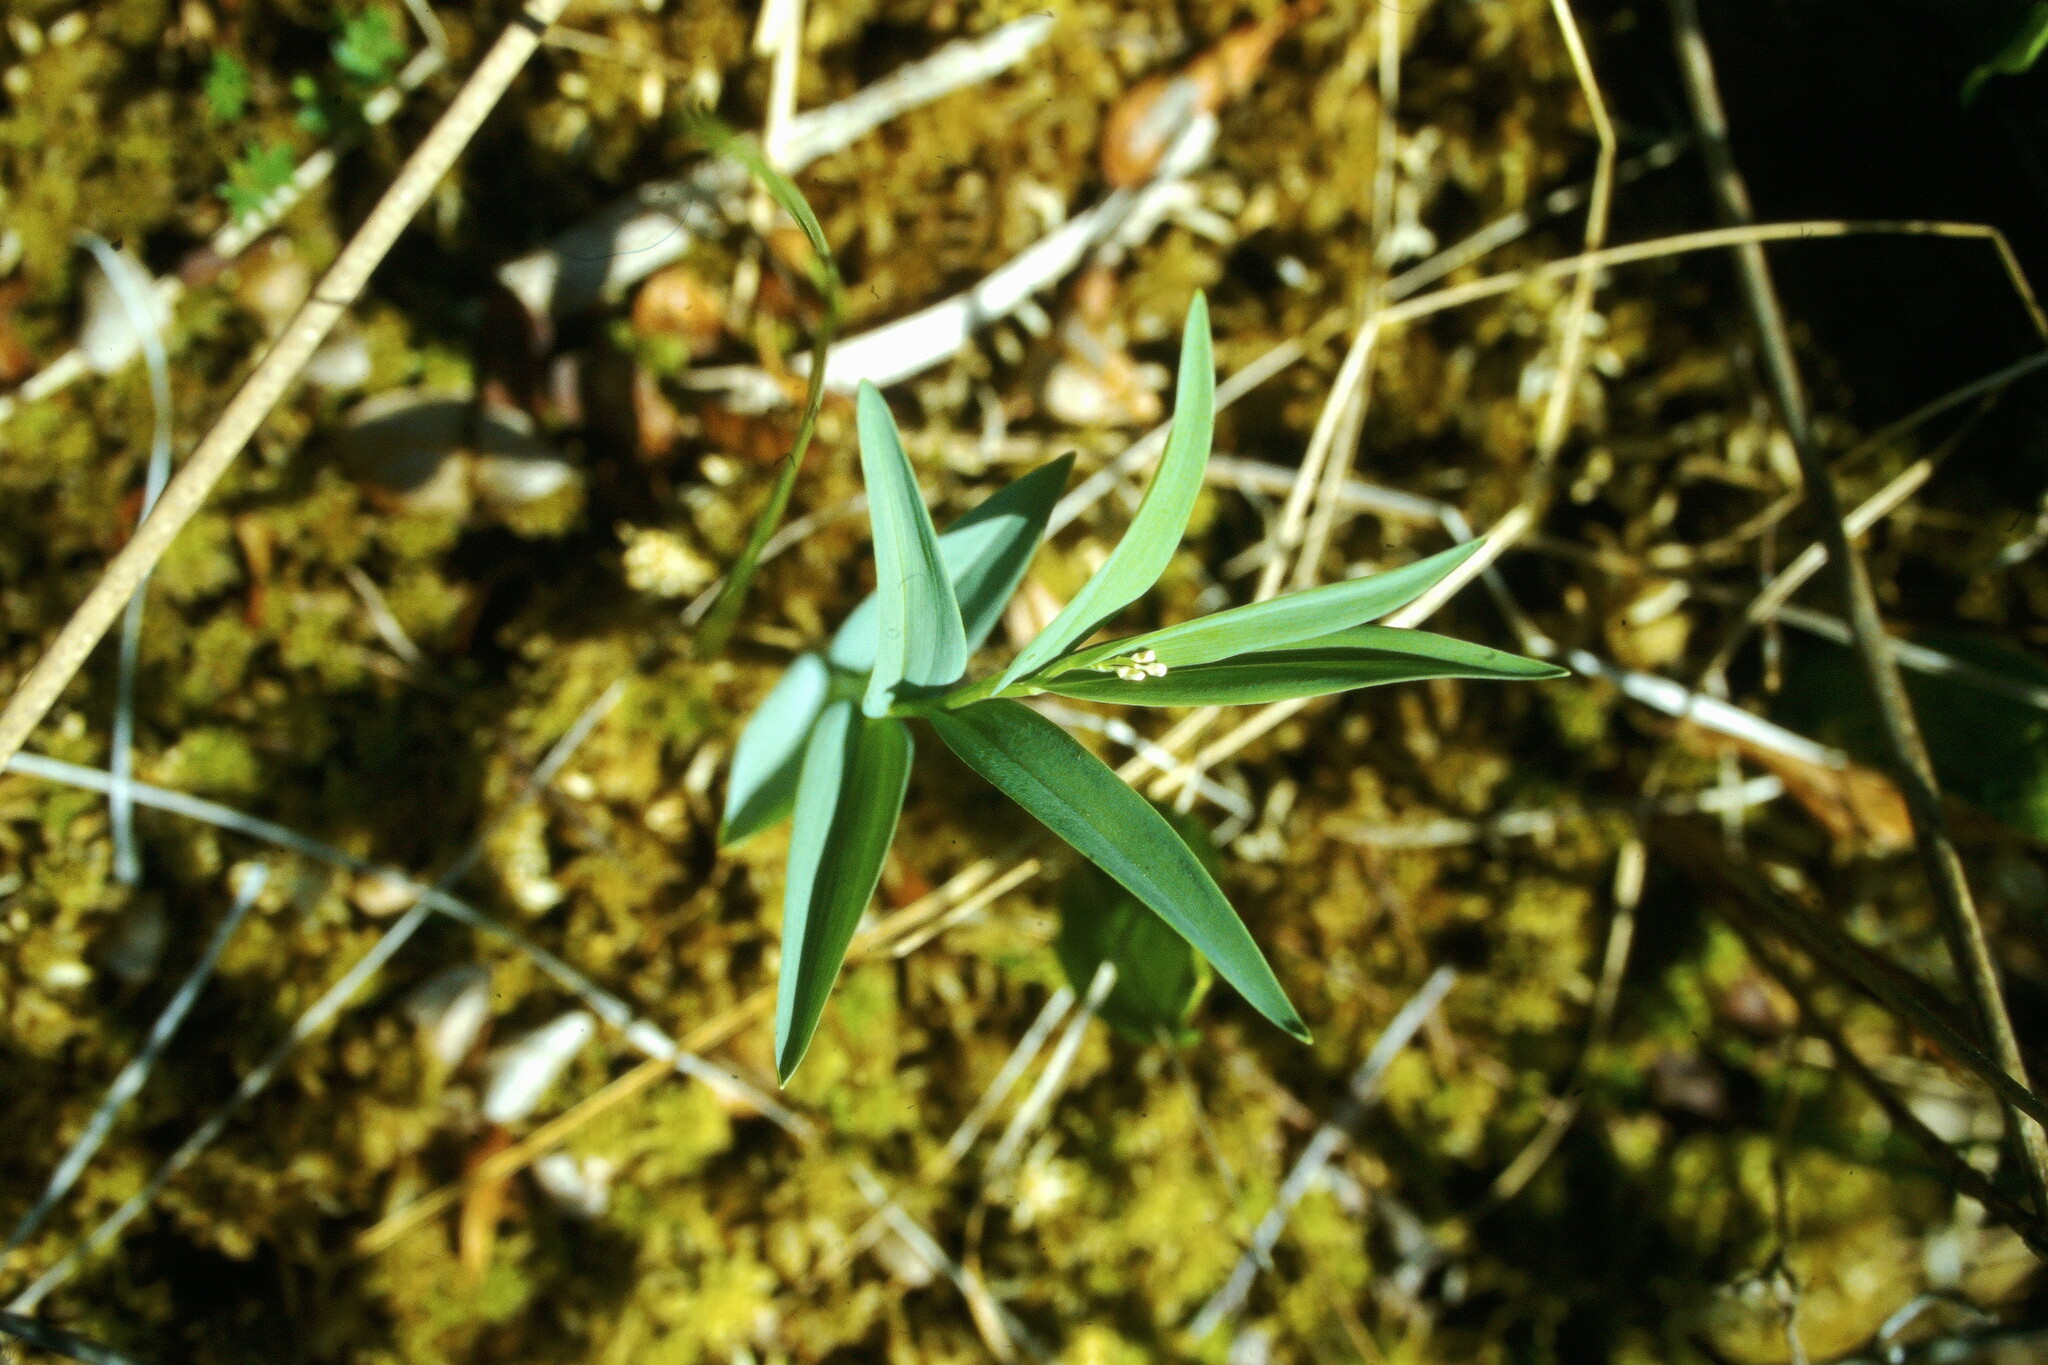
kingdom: Plantae
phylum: Tracheophyta
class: Liliopsida
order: Asparagales
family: Asparagaceae
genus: Maianthemum
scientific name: Maianthemum stellatum
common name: Little false solomon's seal
